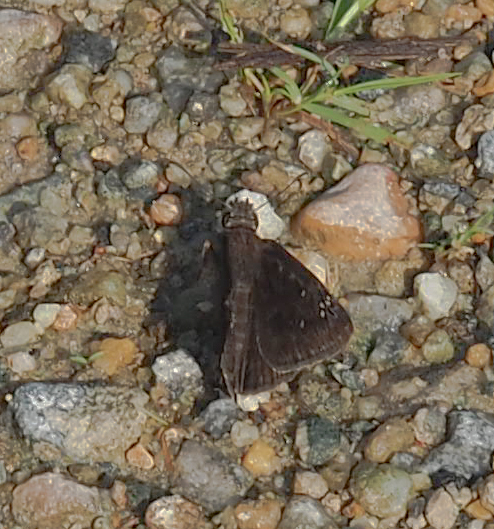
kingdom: Animalia
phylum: Arthropoda
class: Insecta
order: Lepidoptera
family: Hesperiidae
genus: Erynnis
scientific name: Erynnis horatius
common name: Horace's duskywing
